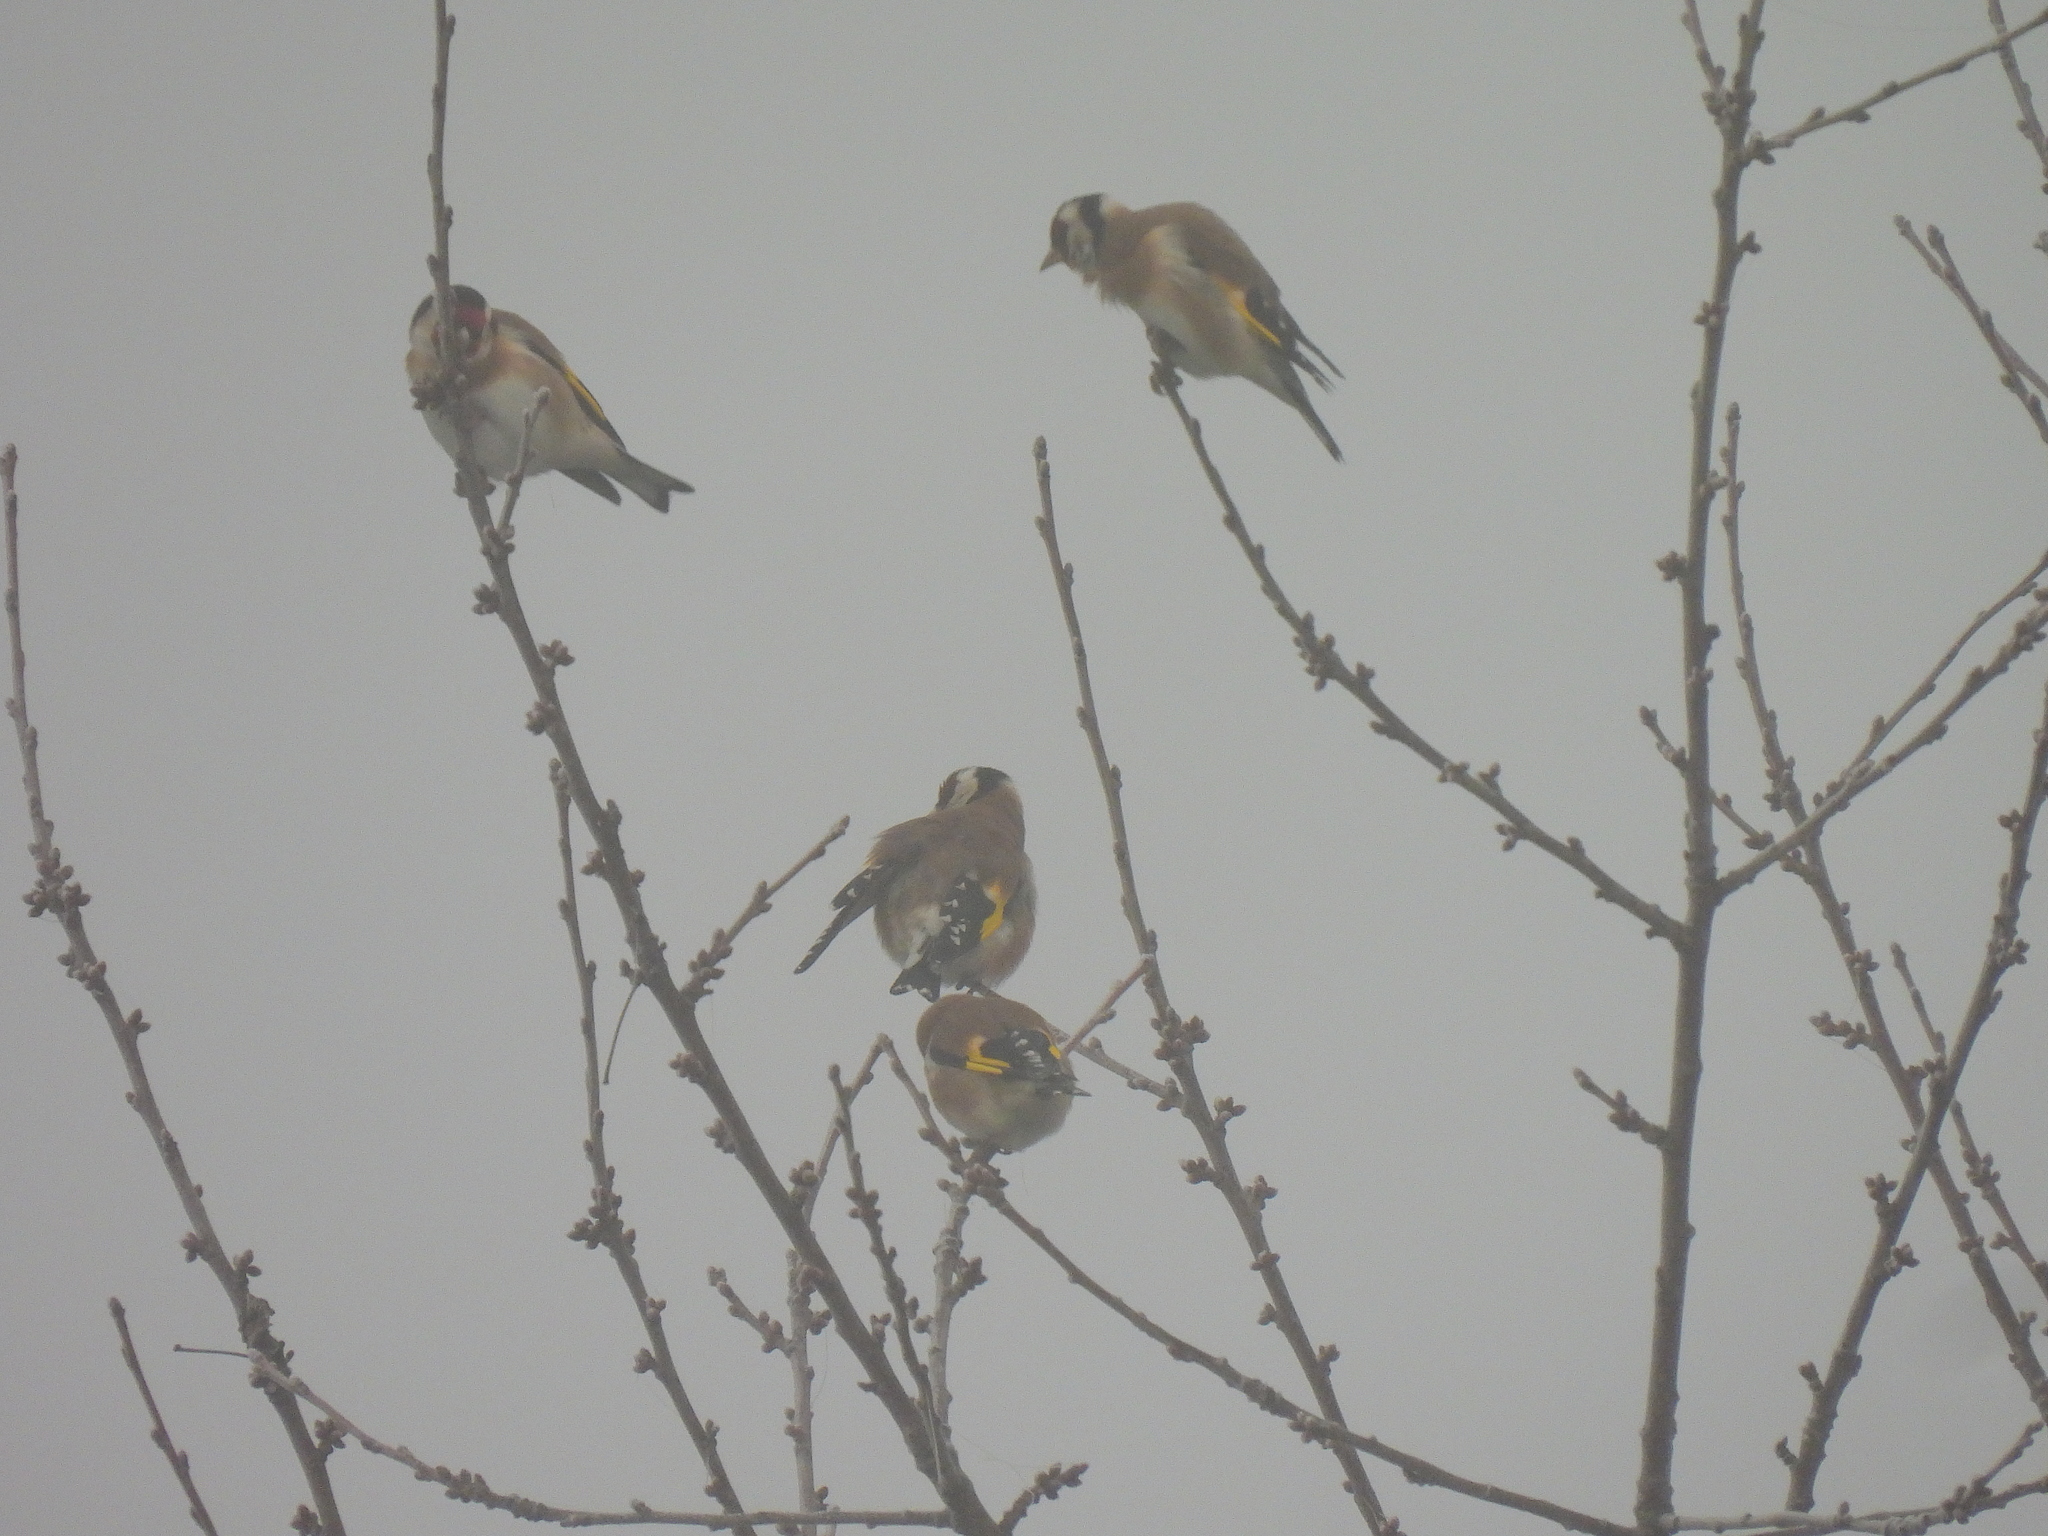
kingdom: Animalia
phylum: Chordata
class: Aves
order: Passeriformes
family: Fringillidae
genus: Carduelis
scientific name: Carduelis carduelis
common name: European goldfinch
